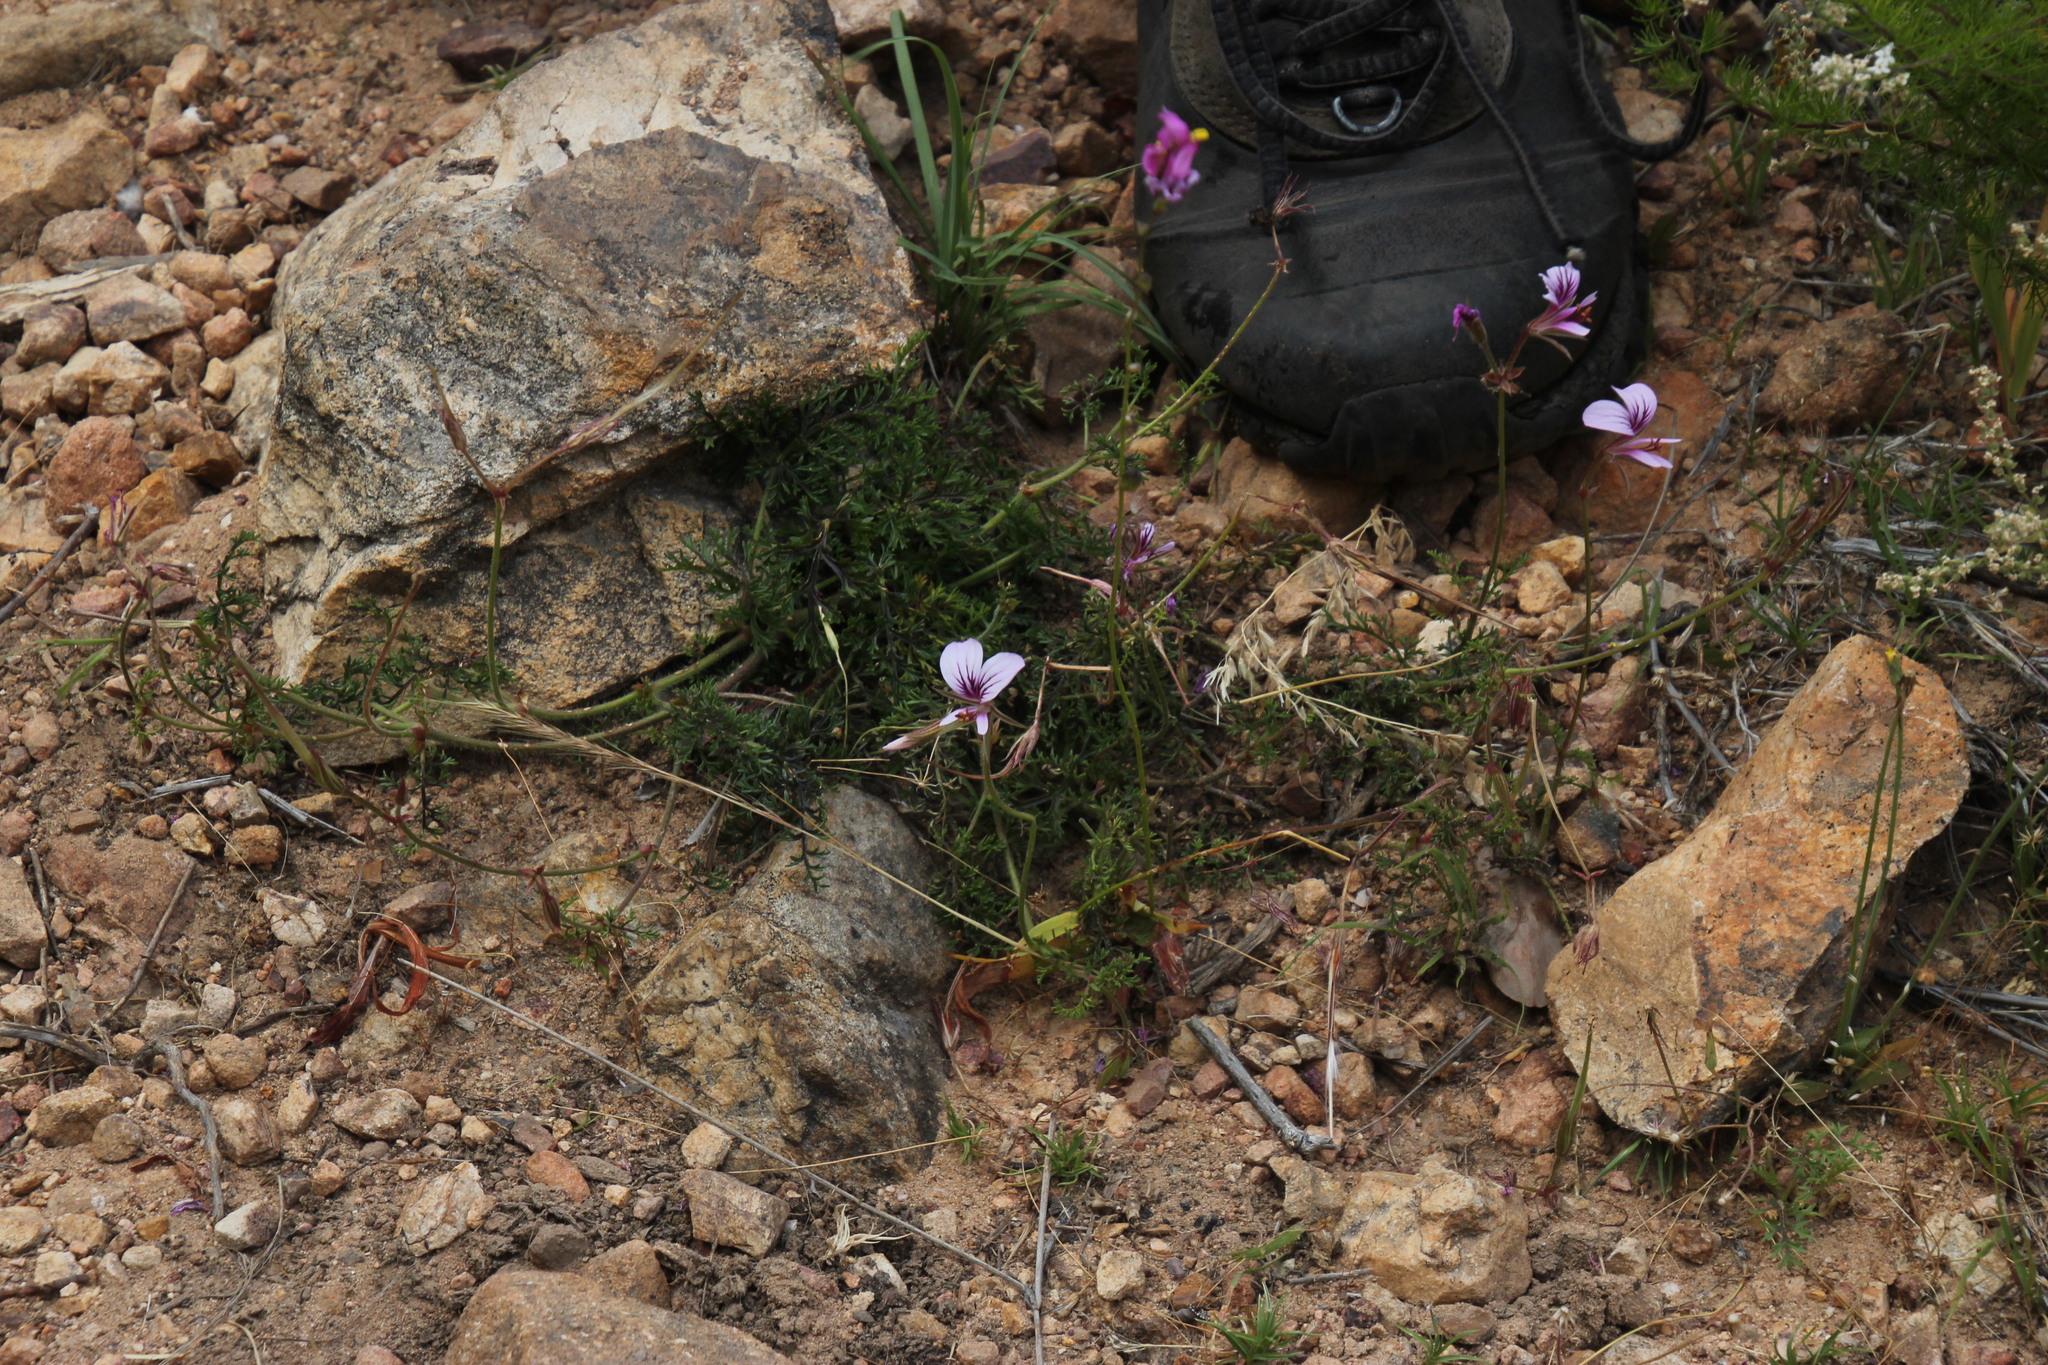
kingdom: Plantae
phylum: Tracheophyta
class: Magnoliopsida
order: Geraniales
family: Geraniaceae
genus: Pelargonium
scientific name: Pelargonium myrrhifolium
